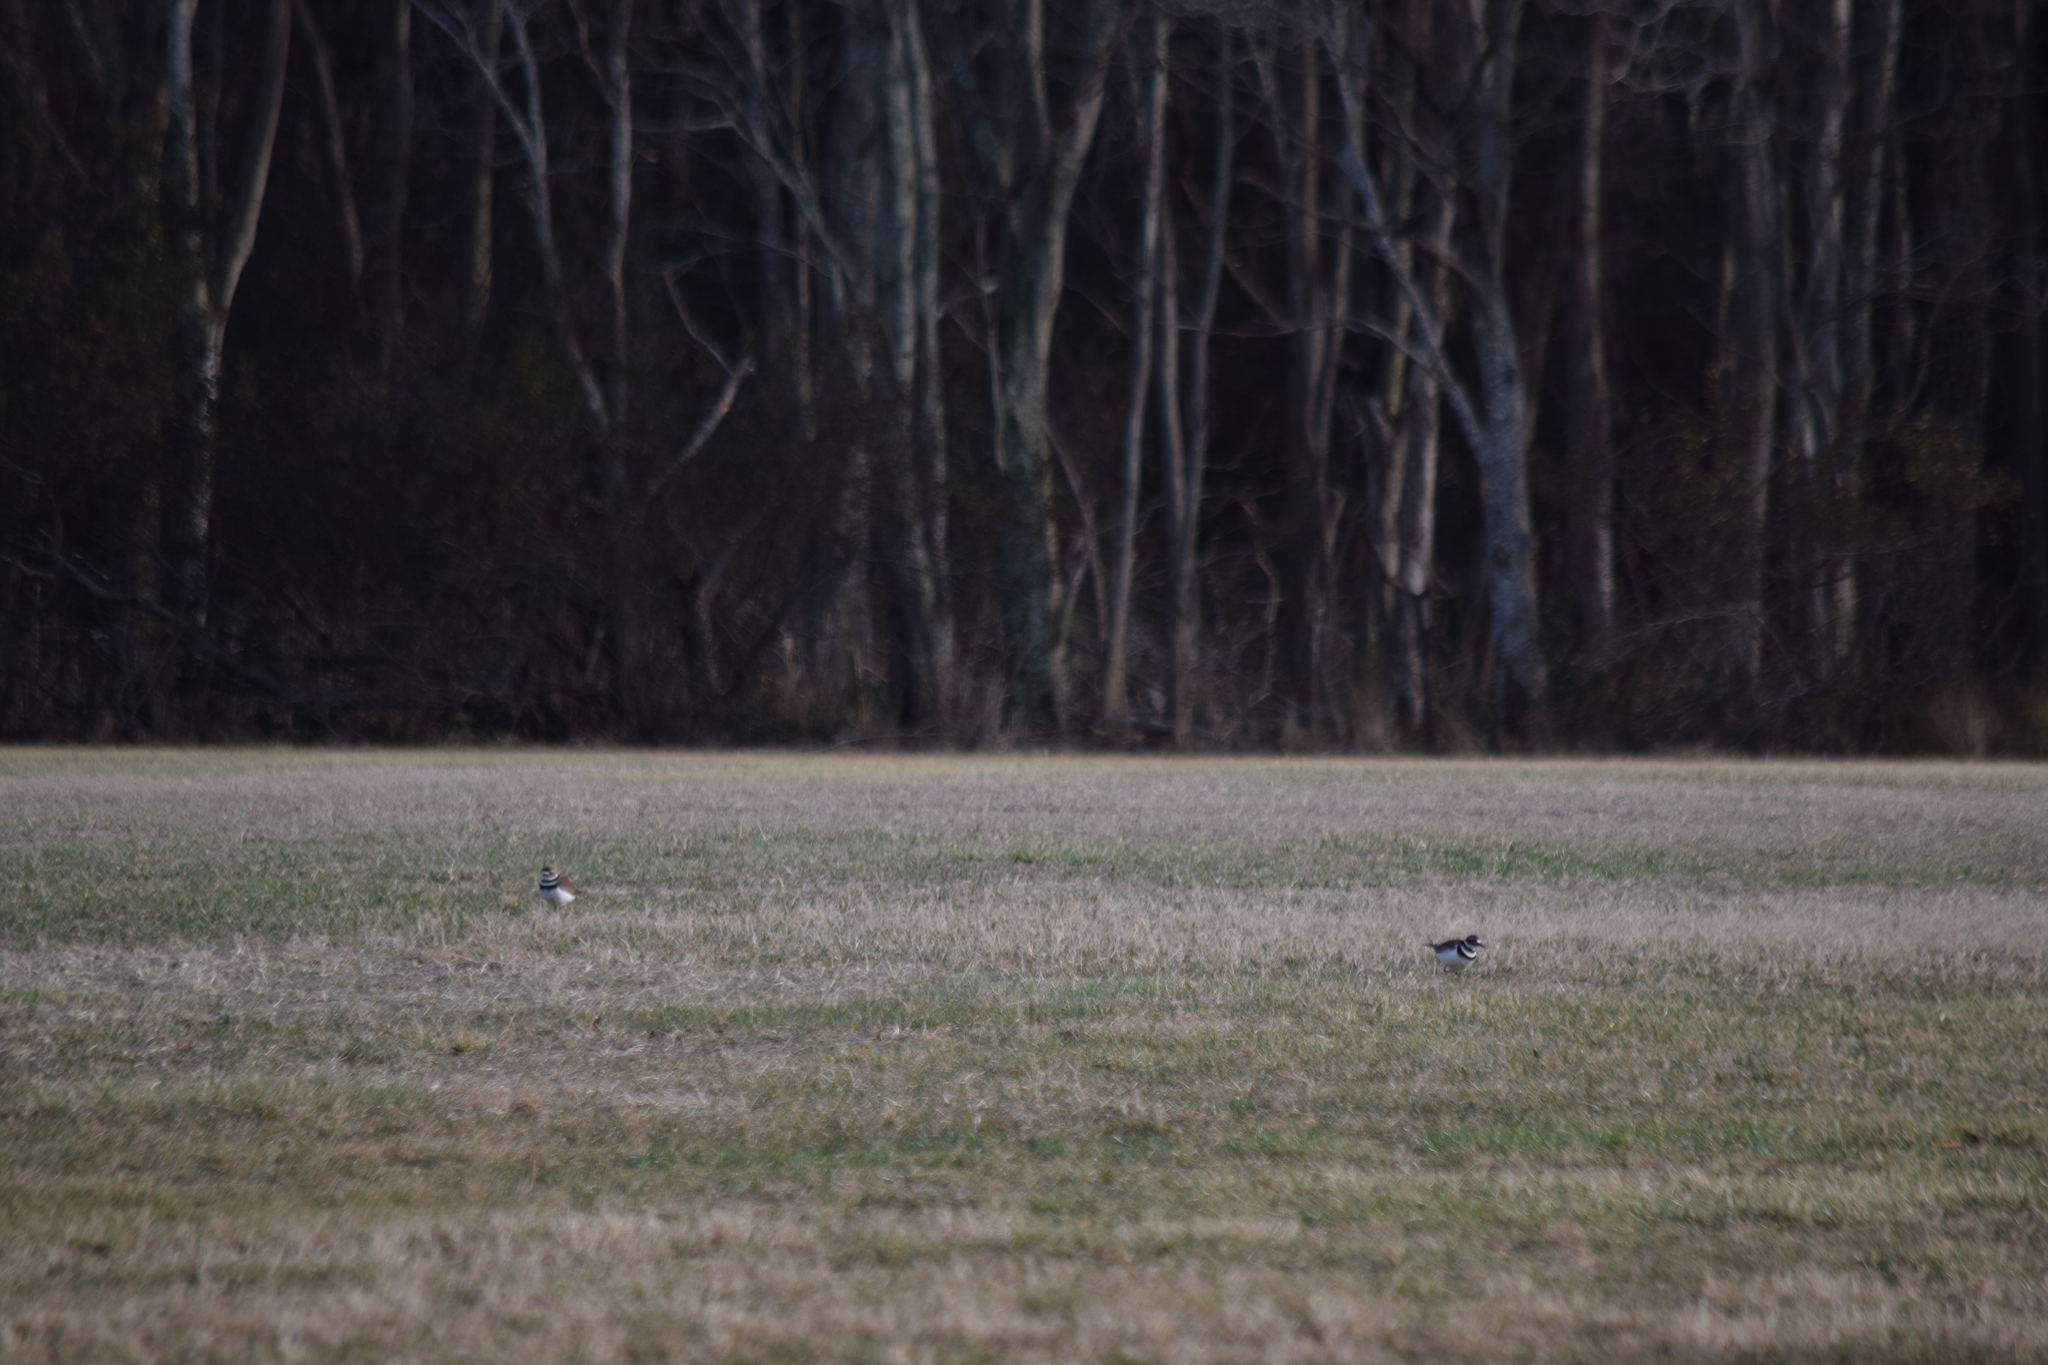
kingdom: Animalia
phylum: Chordata
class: Aves
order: Charadriiformes
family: Charadriidae
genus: Charadrius
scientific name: Charadrius vociferus
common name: Killdeer
